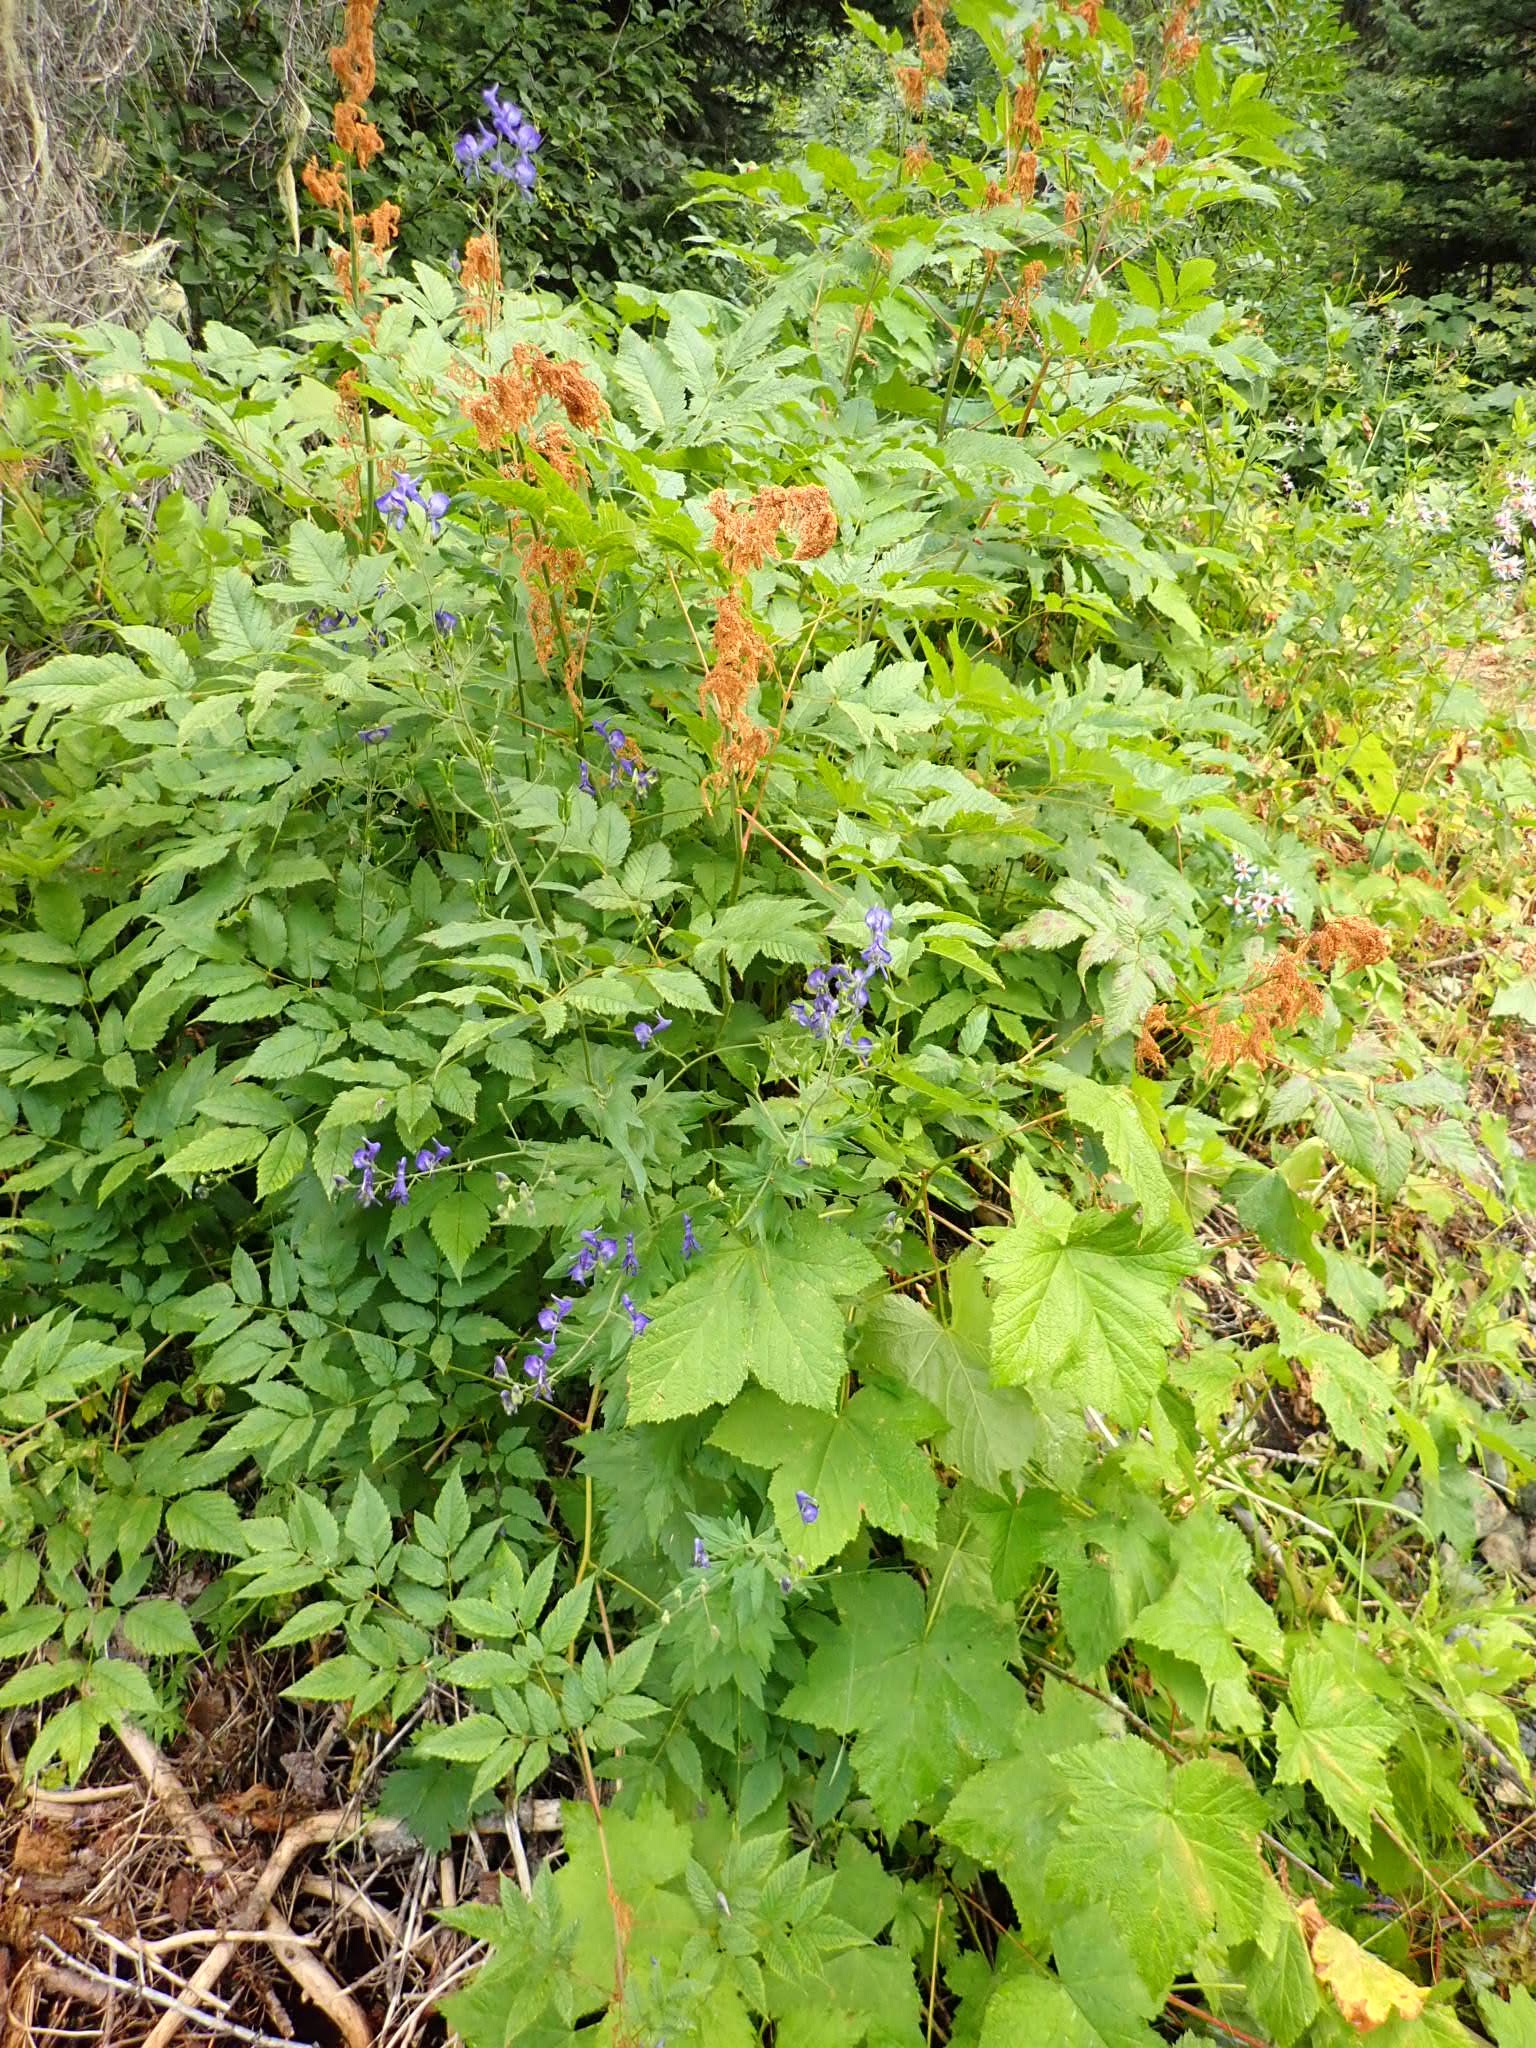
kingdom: Plantae
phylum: Tracheophyta
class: Magnoliopsida
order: Ranunculales
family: Ranunculaceae
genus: Aconitum
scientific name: Aconitum columbianum
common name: Columbia aconite
